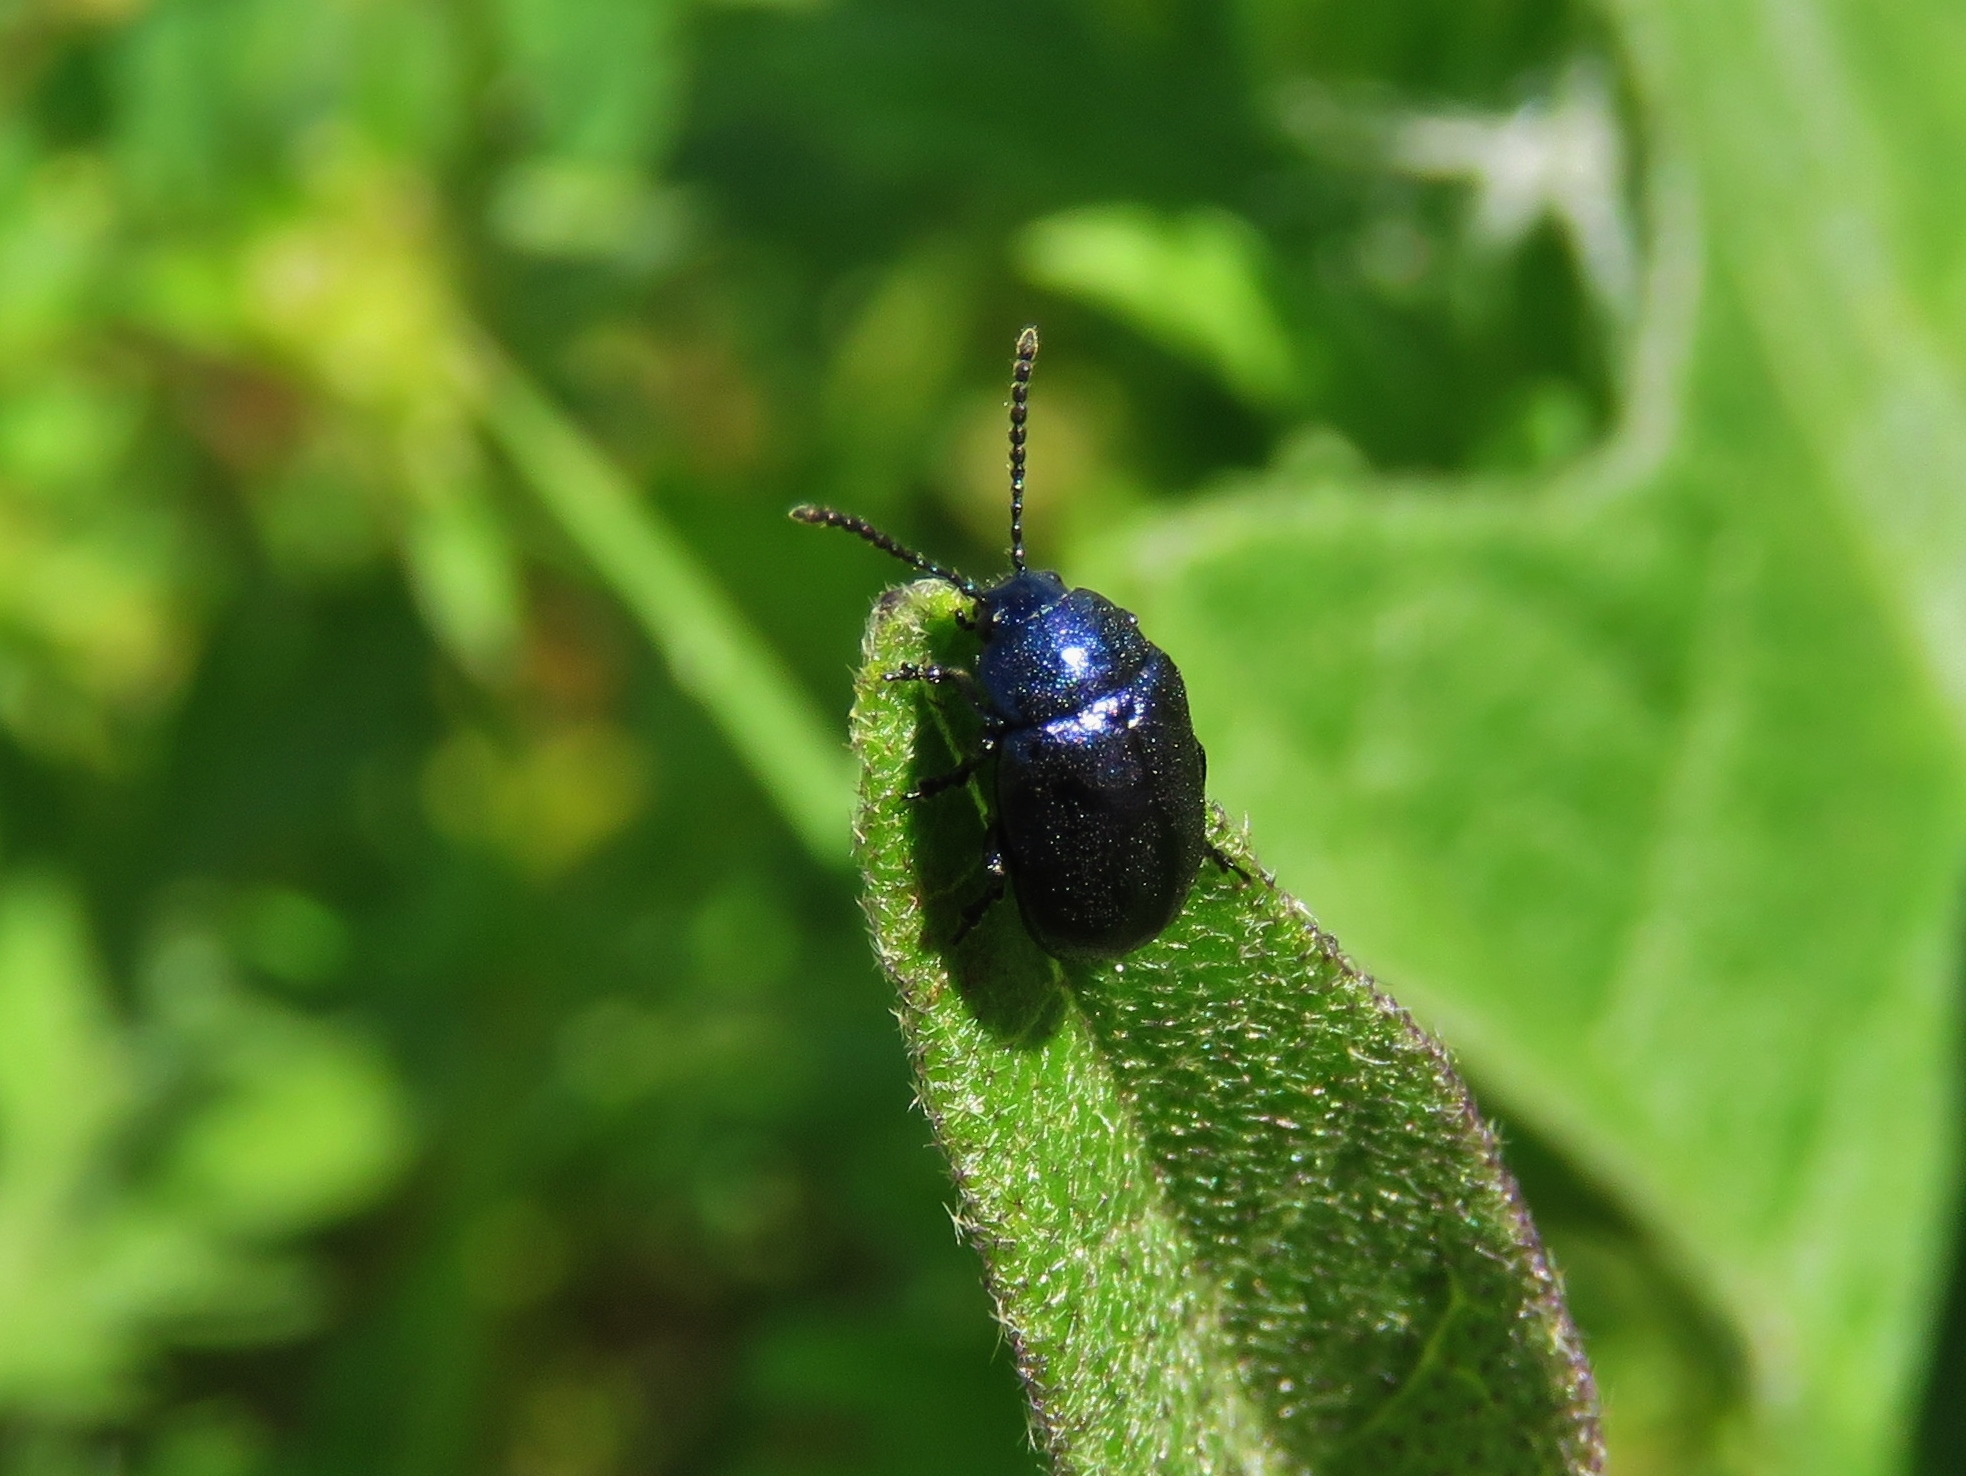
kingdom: Animalia
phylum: Arthropoda
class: Insecta
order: Coleoptera
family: Chrysomelidae
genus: Gastrophysa
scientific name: Gastrophysa cyanea
